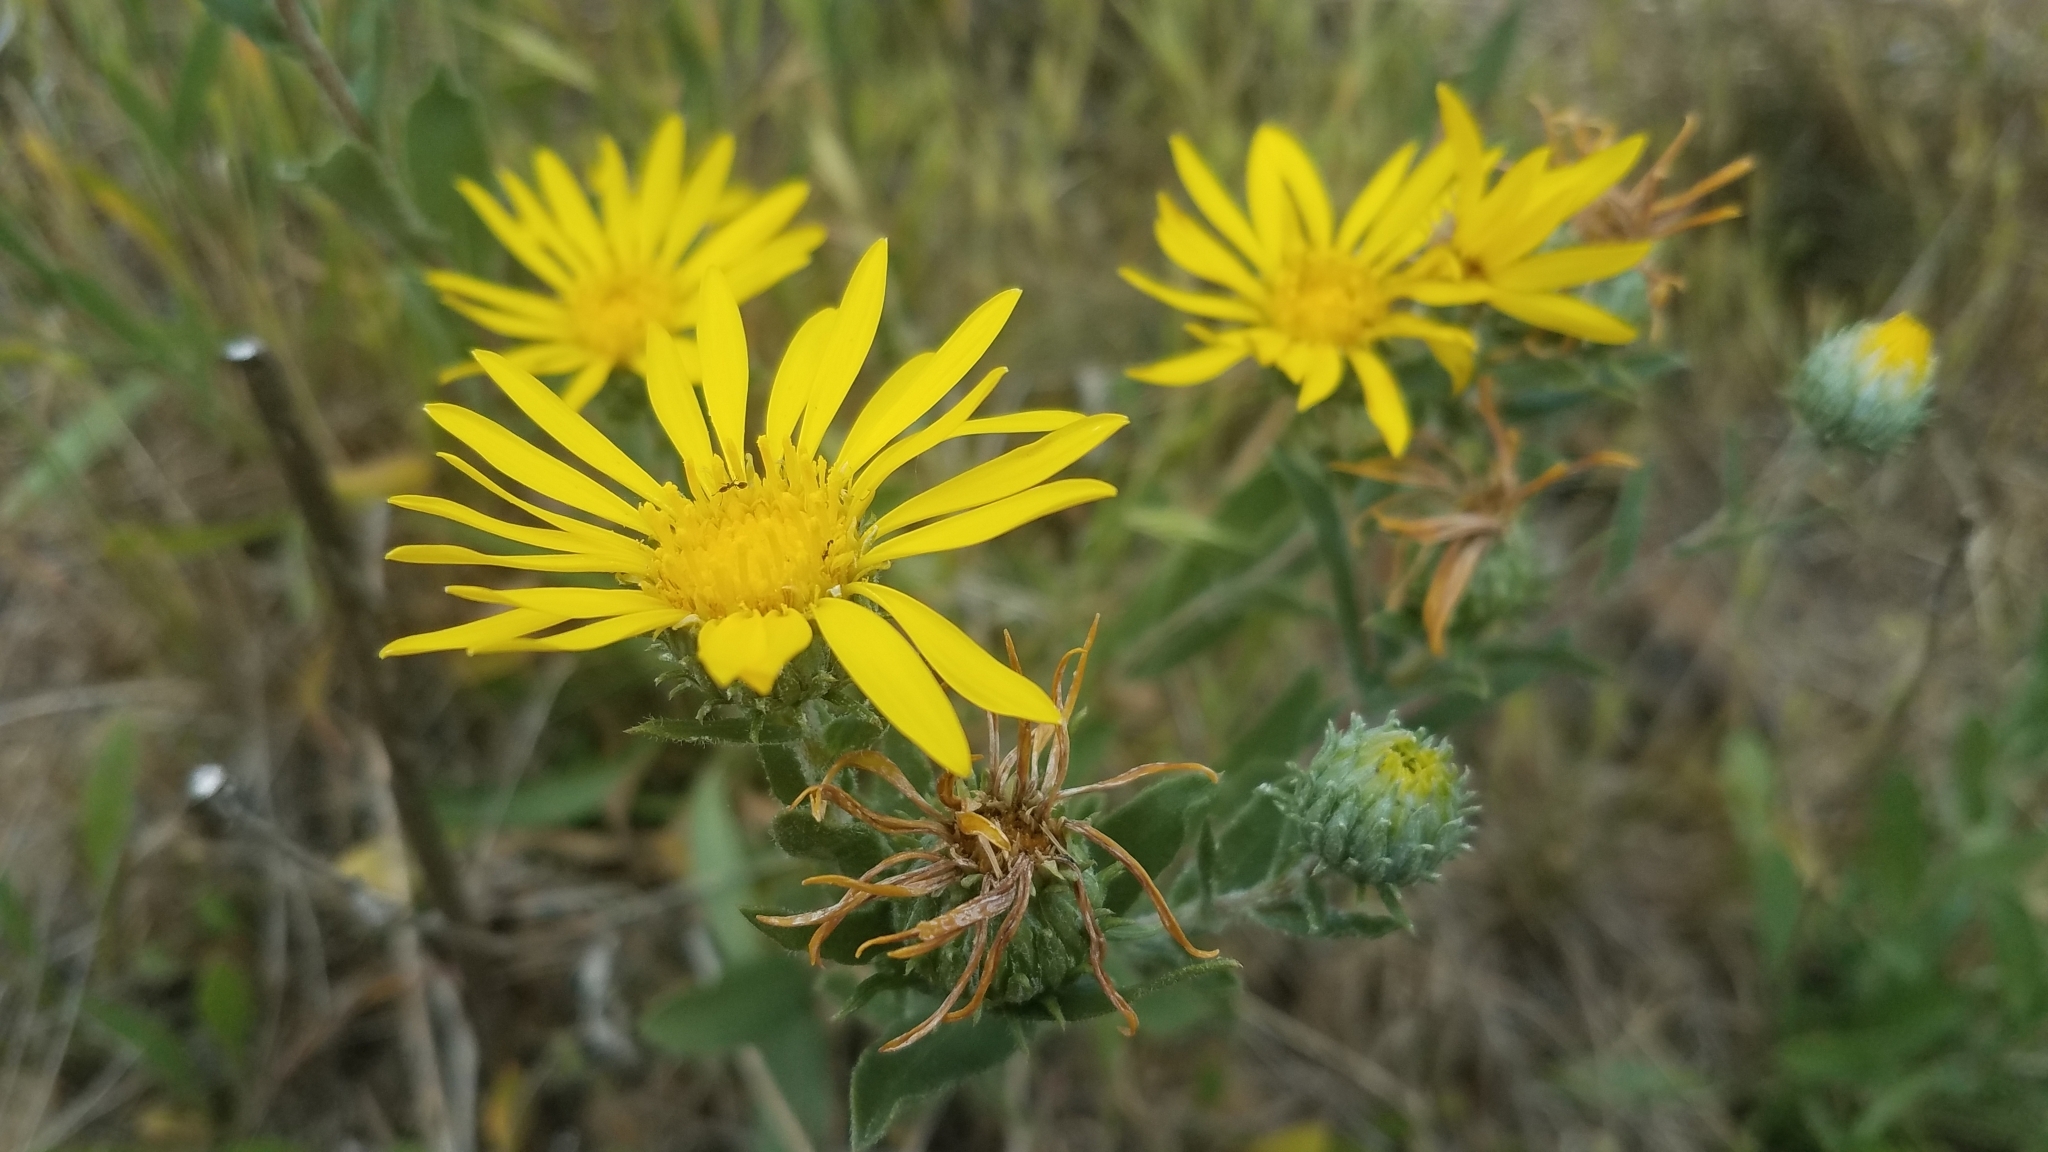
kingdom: Plantae
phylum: Tracheophyta
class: Magnoliopsida
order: Asterales
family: Asteraceae
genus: Grindelia
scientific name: Grindelia hirsutula
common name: Hairy gumweed
